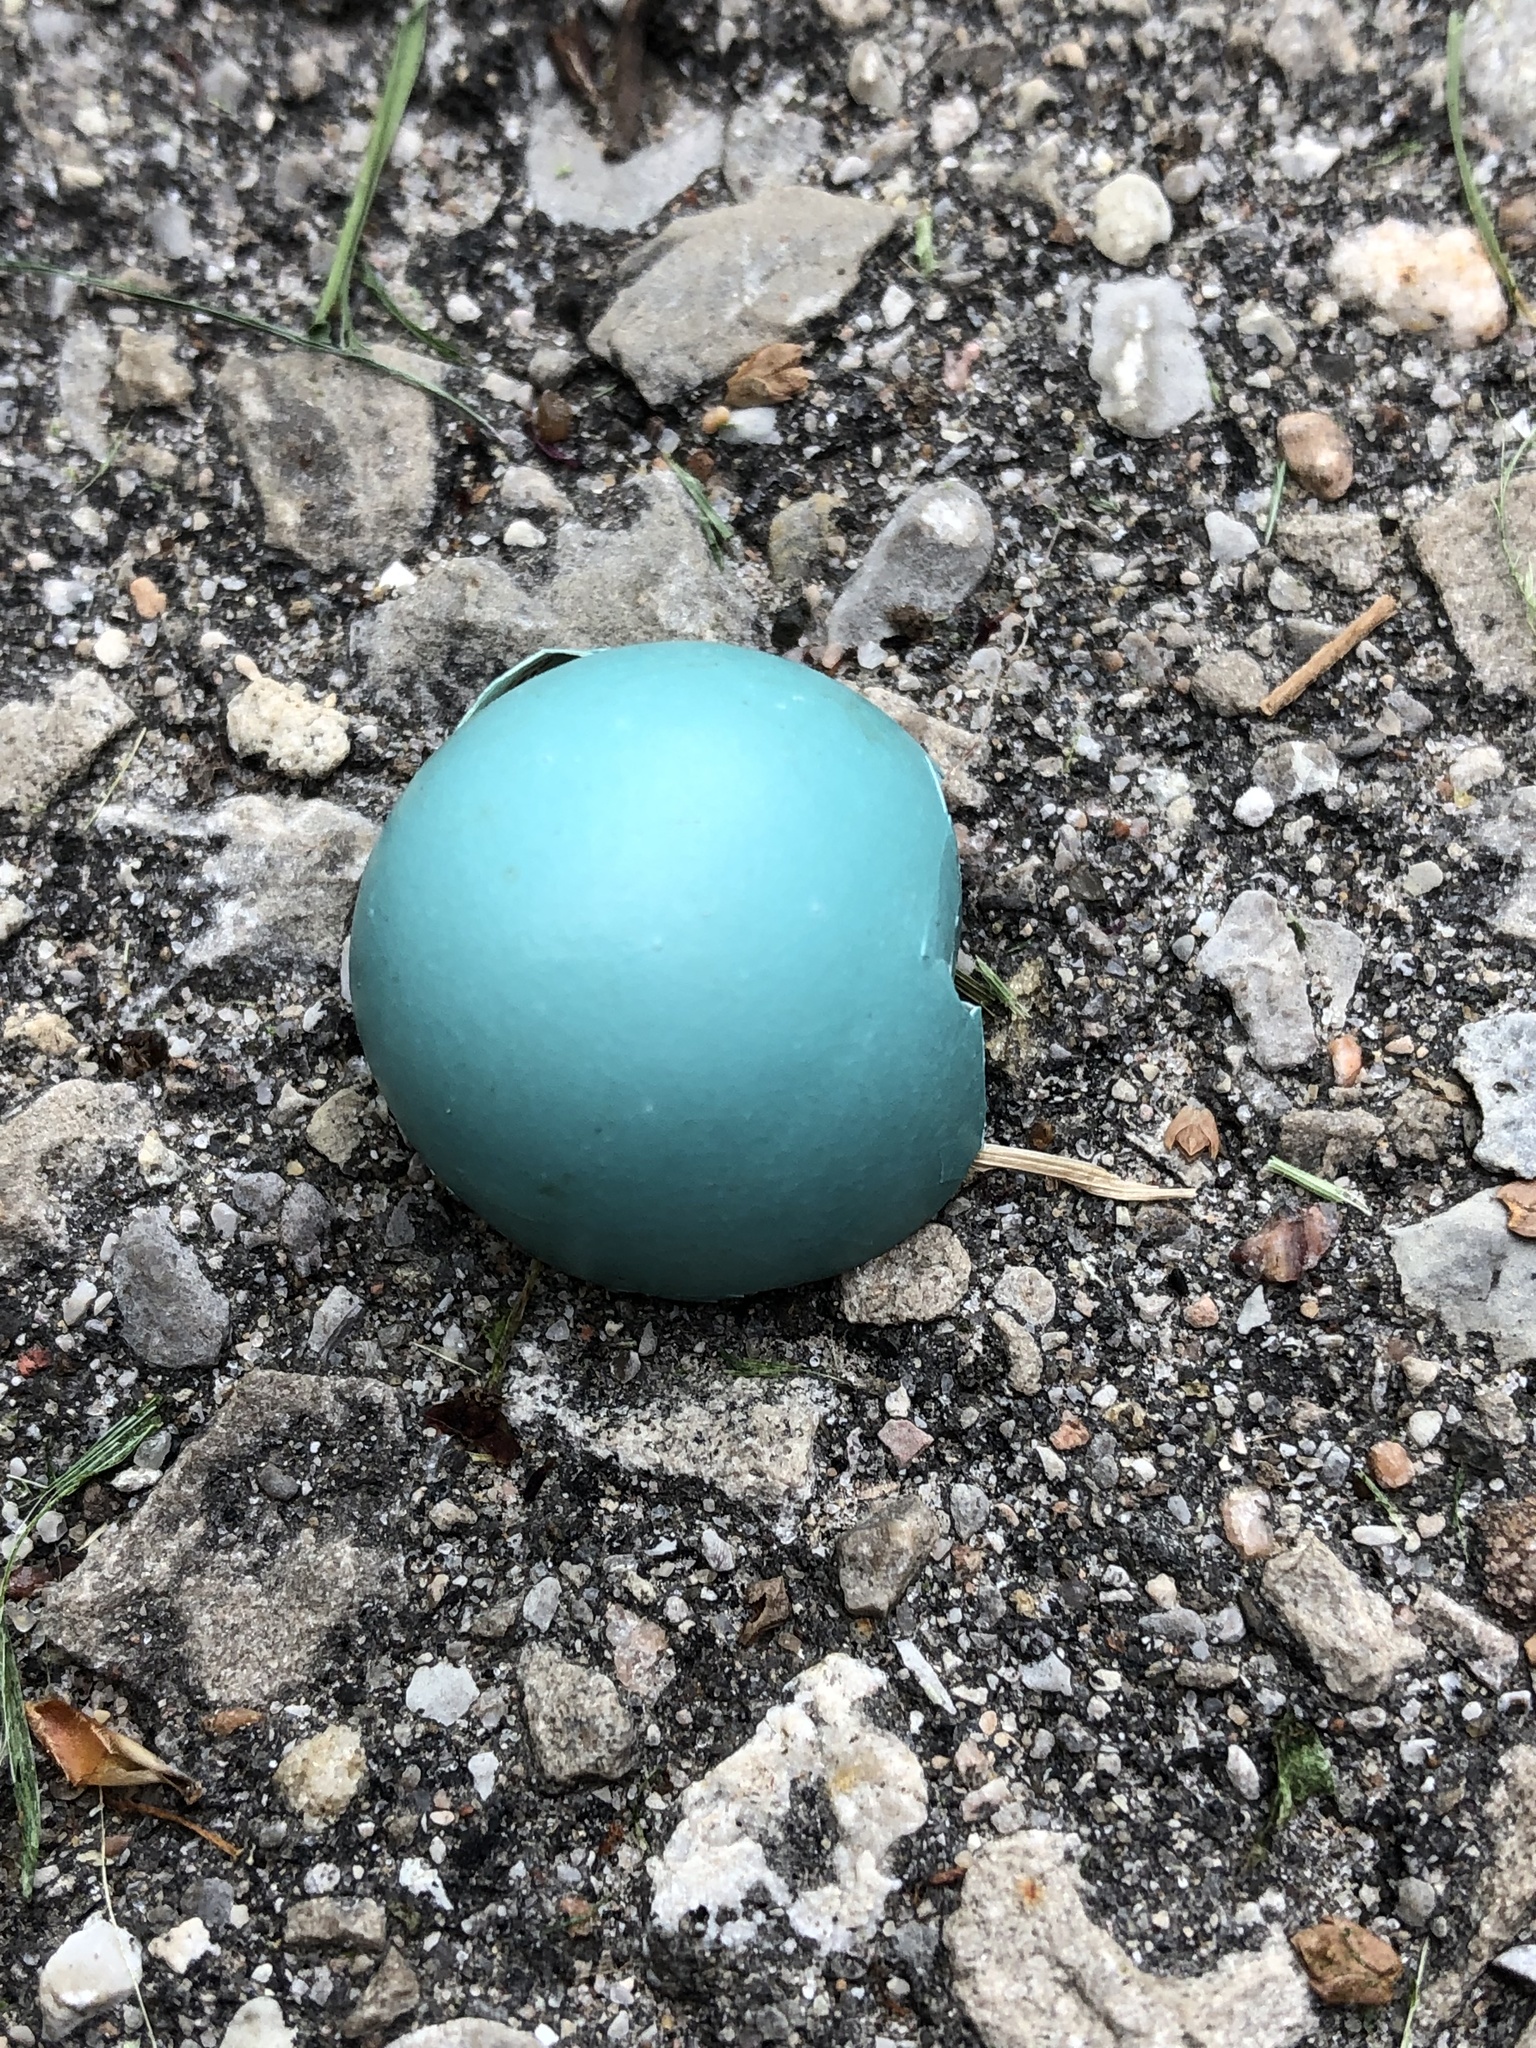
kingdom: Animalia
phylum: Chordata
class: Aves
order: Passeriformes
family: Turdidae
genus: Turdus
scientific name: Turdus migratorius
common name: American robin
